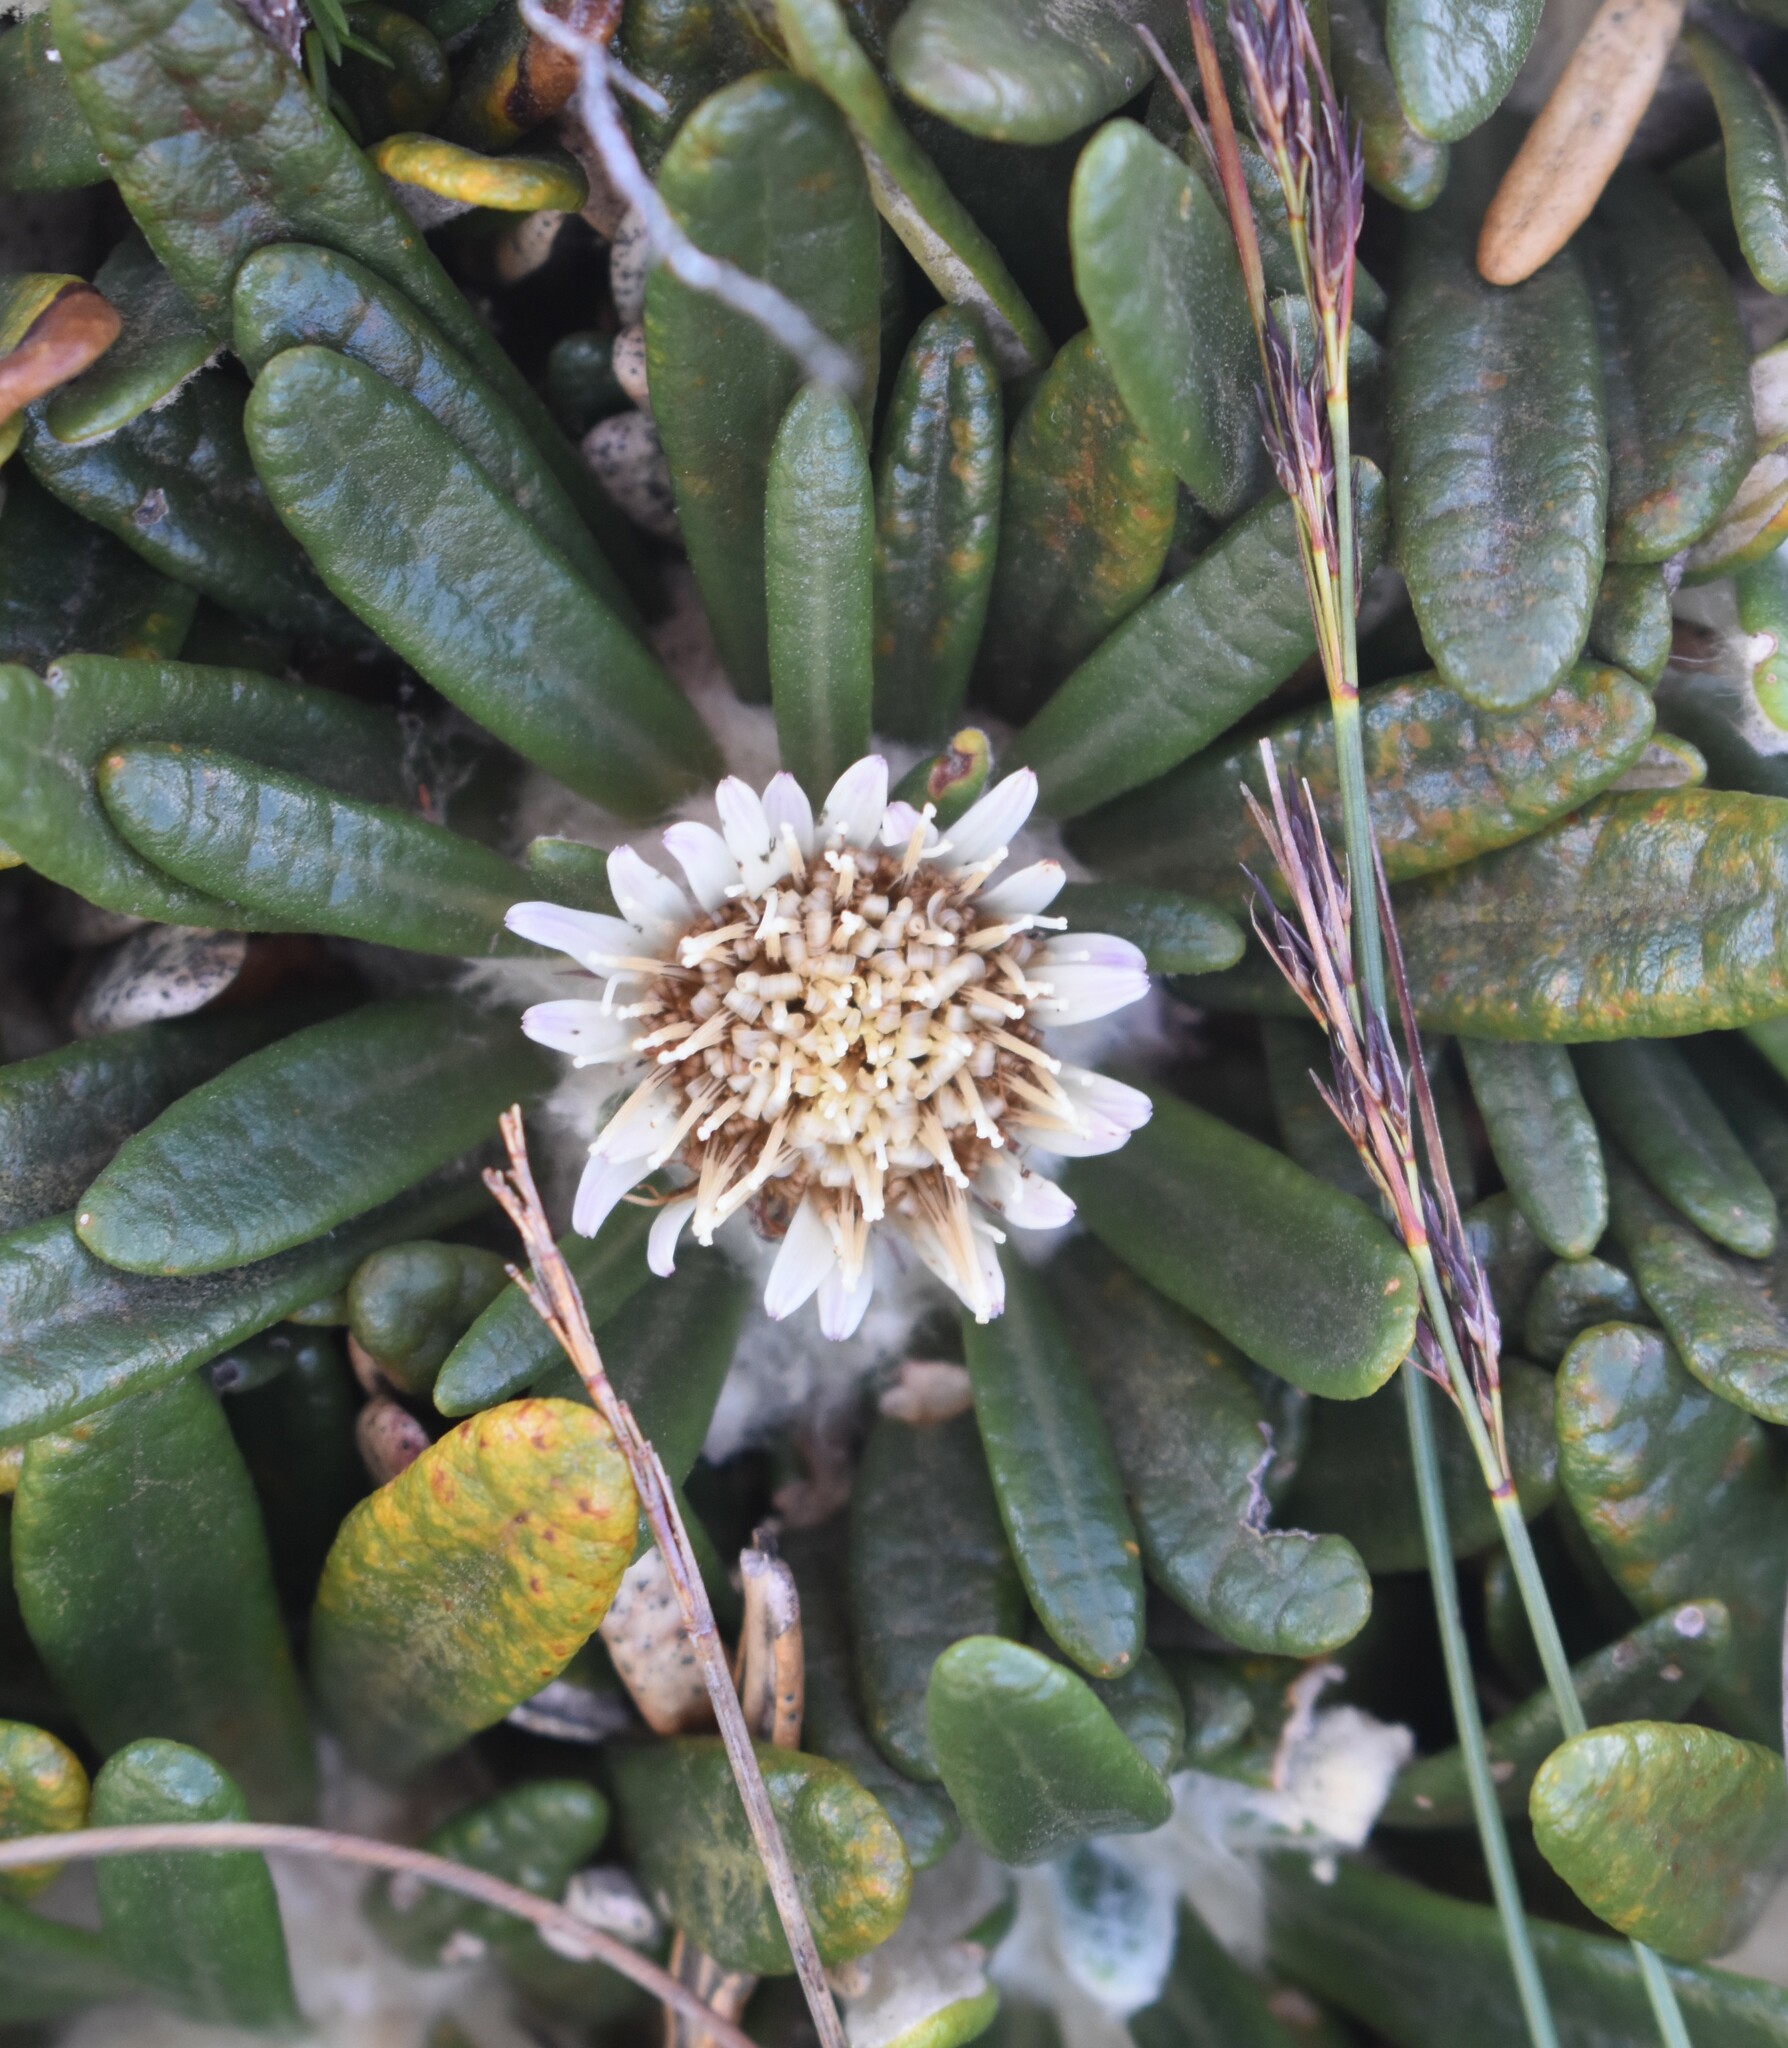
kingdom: Plantae
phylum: Tracheophyta
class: Magnoliopsida
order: Asterales
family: Asteraceae
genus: Oldenburgia
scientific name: Oldenburgia paradoxa
